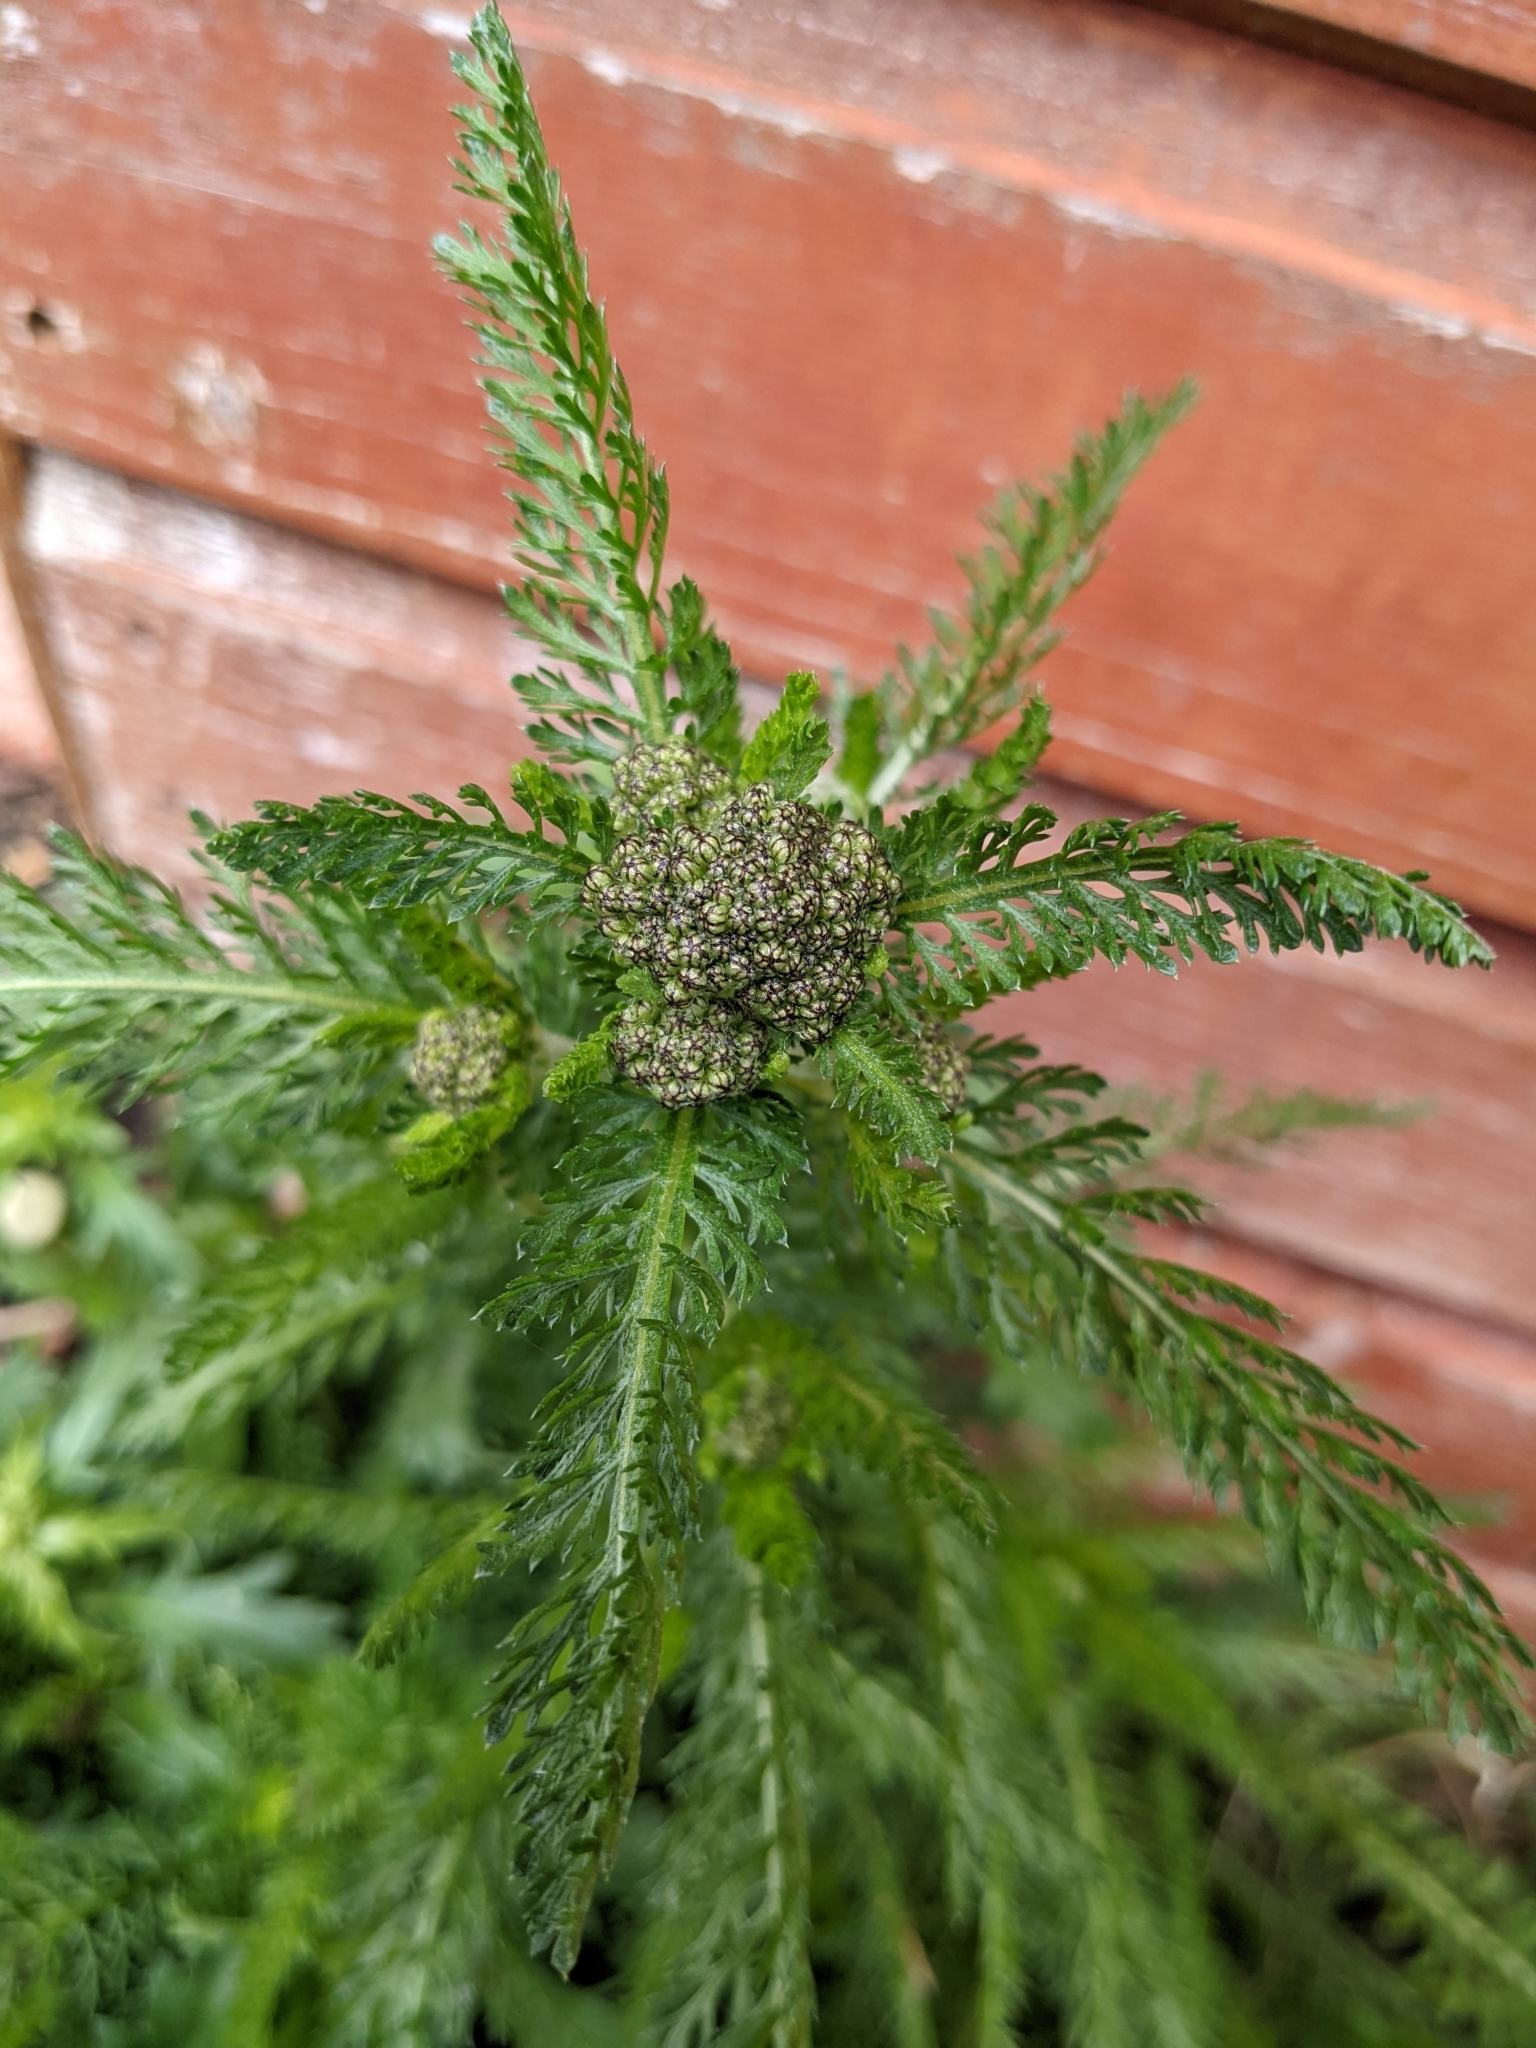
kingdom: Plantae
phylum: Tracheophyta
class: Magnoliopsida
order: Asterales
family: Asteraceae
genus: Achillea
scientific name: Achillea millefolium
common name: Yarrow
